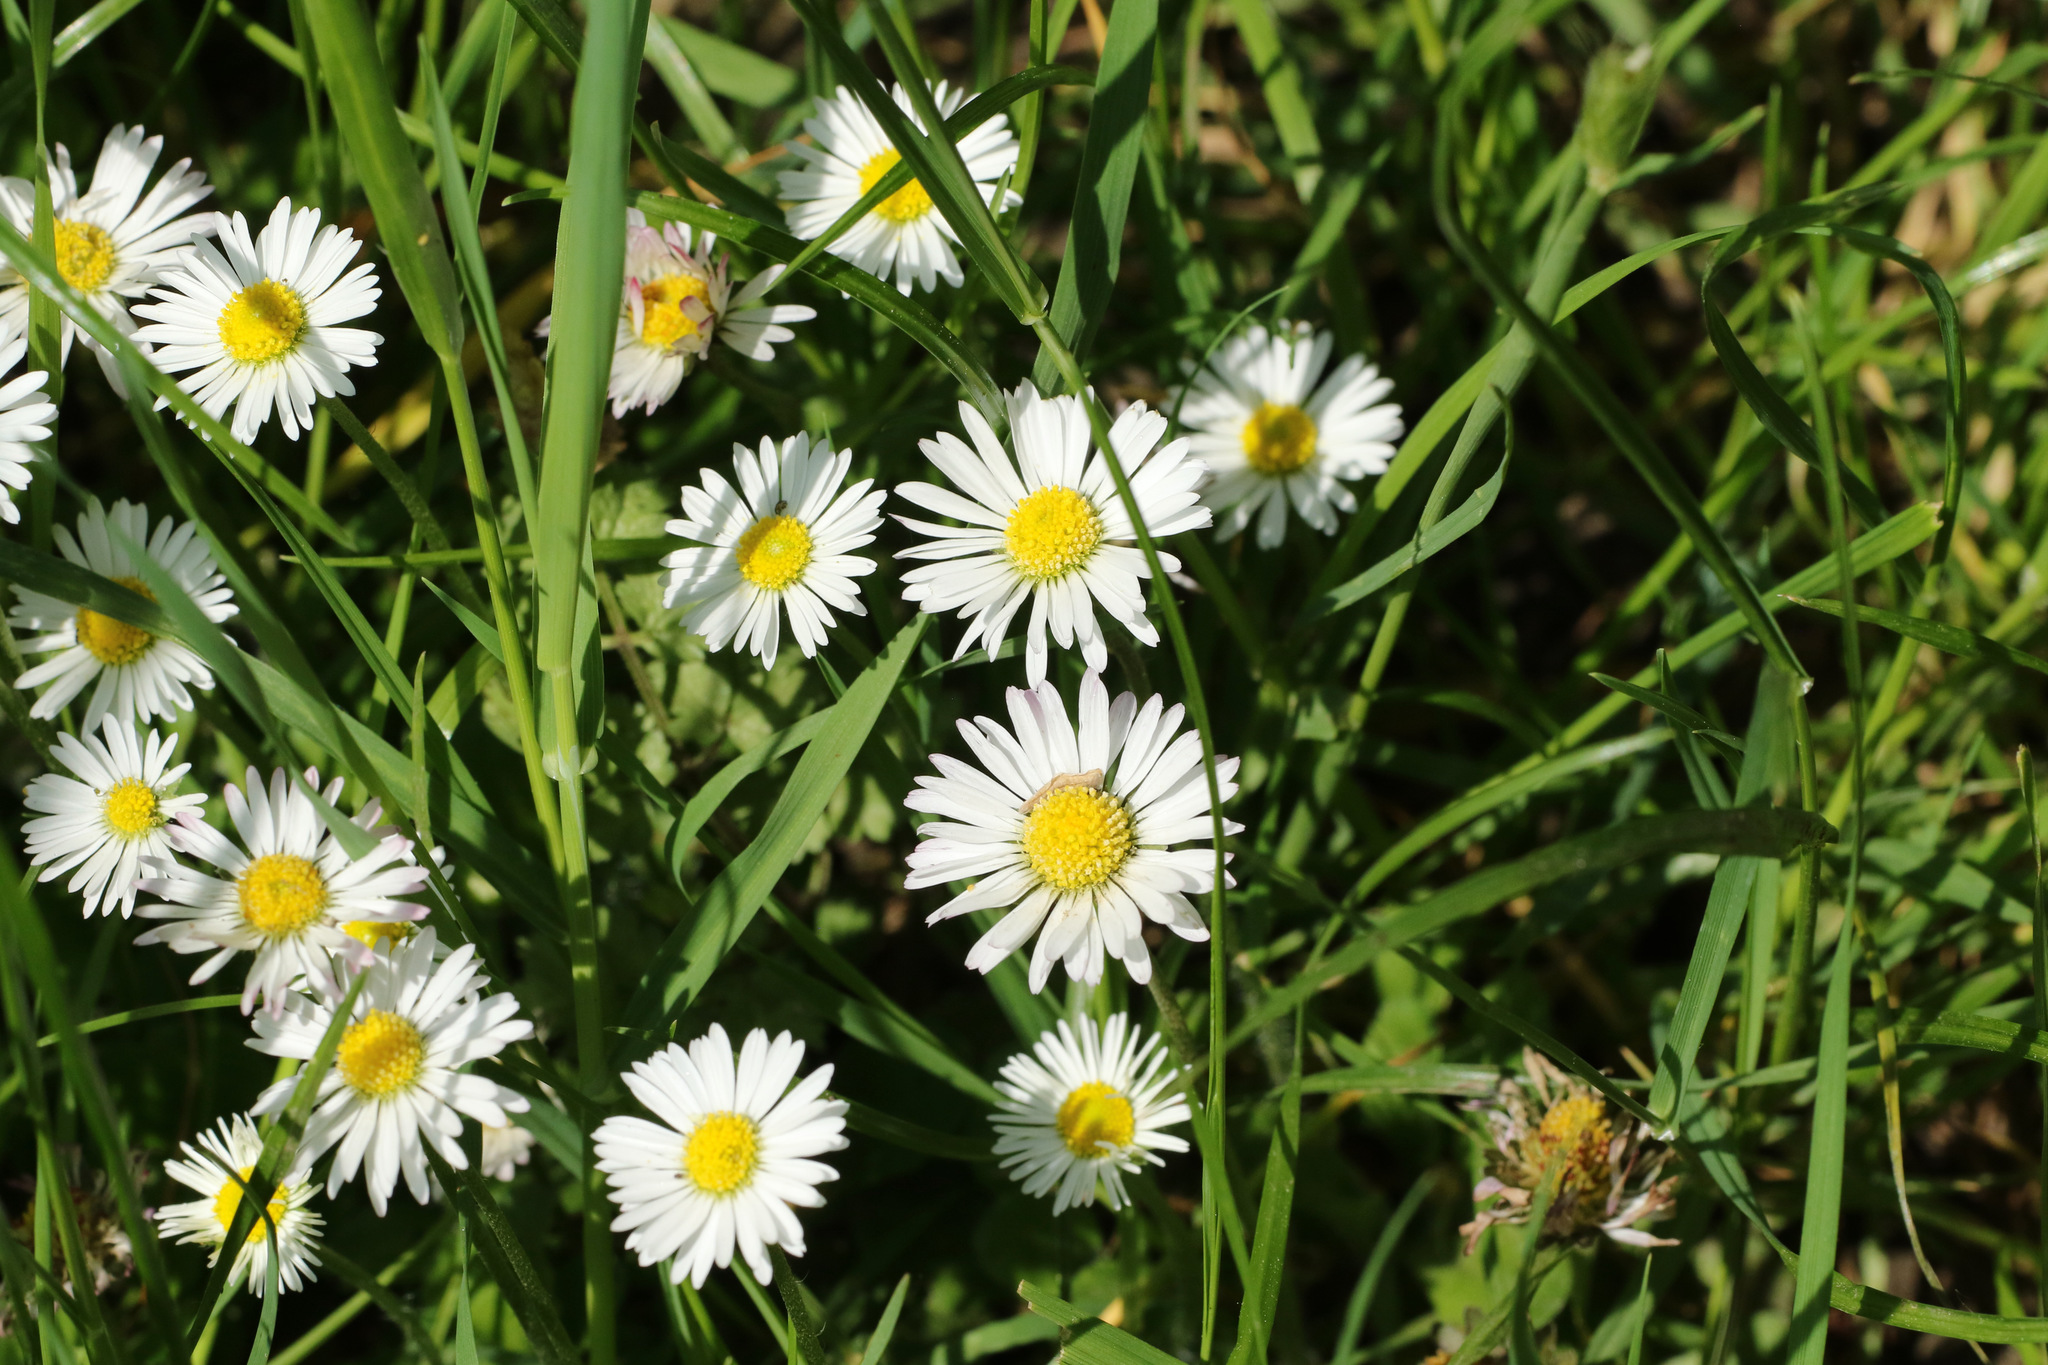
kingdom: Plantae
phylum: Tracheophyta
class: Magnoliopsida
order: Asterales
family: Asteraceae
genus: Bellis
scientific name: Bellis perennis
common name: Lawndaisy
